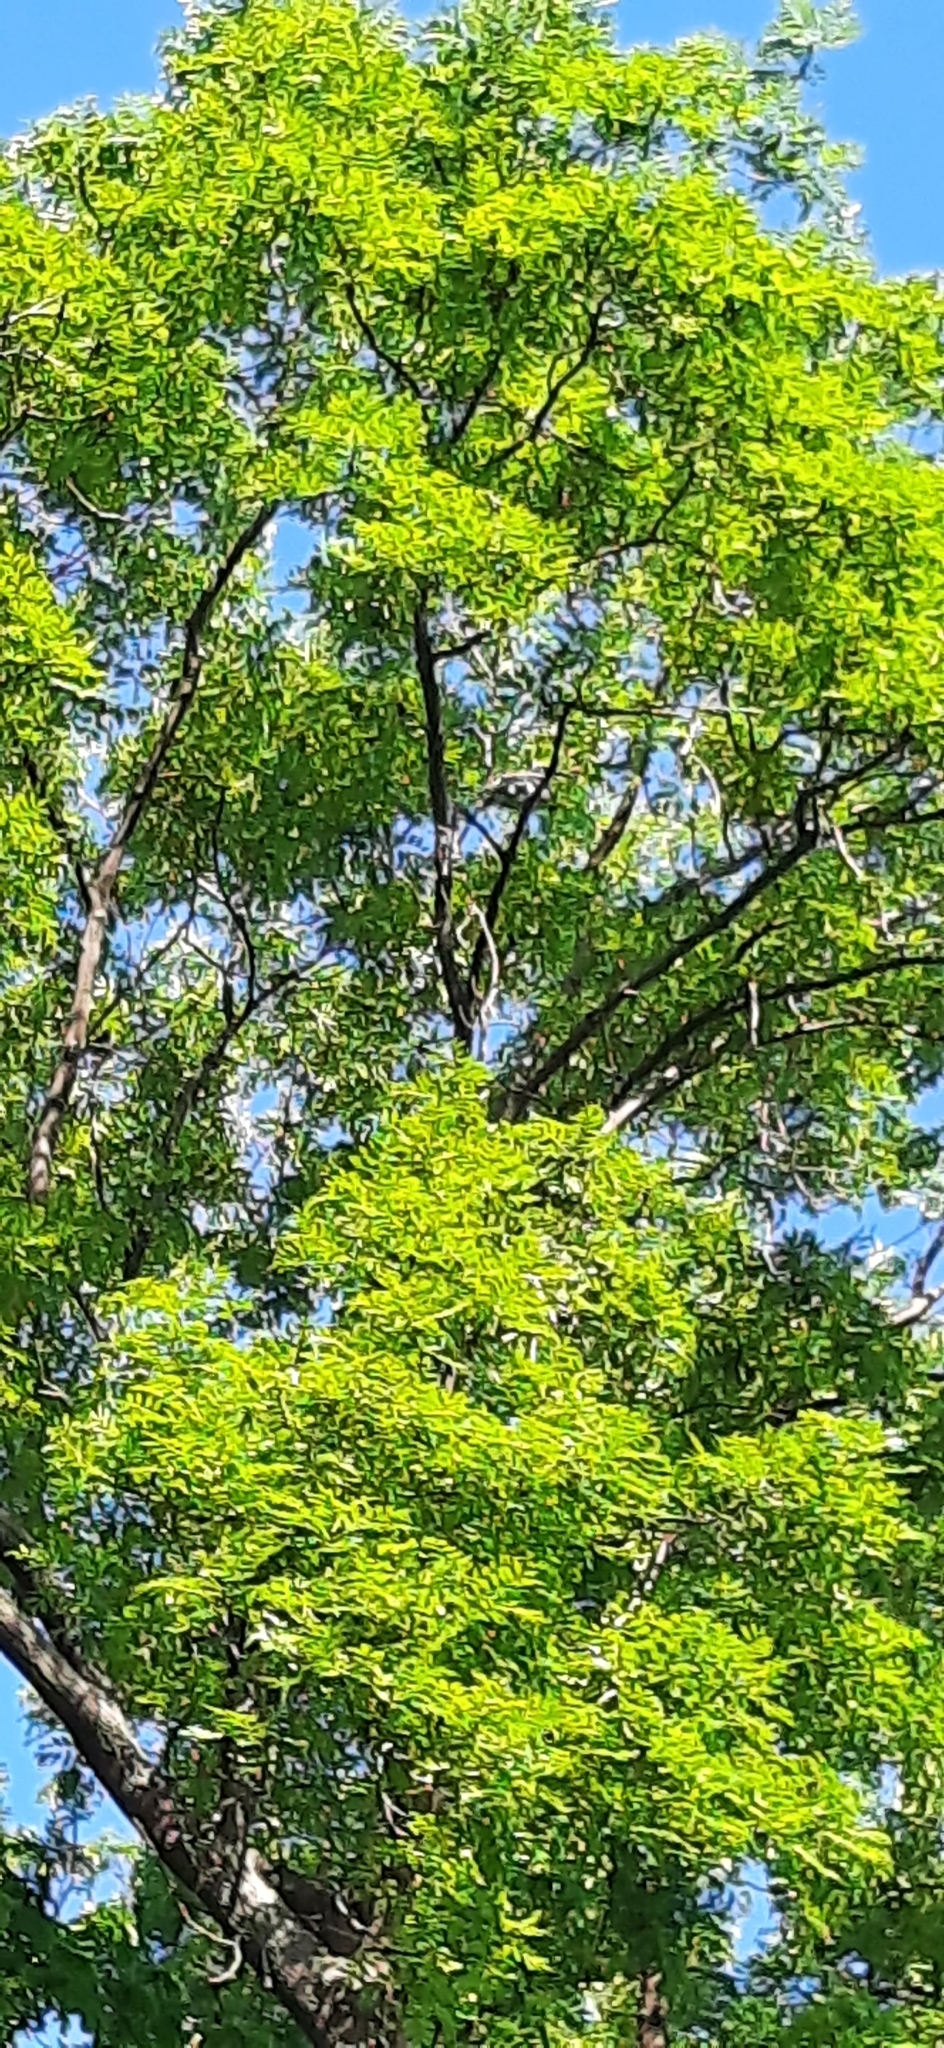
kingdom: Animalia
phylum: Chordata
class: Aves
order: Columbiformes
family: Columbidae
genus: Columba
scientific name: Columba palumbus
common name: Common wood pigeon
